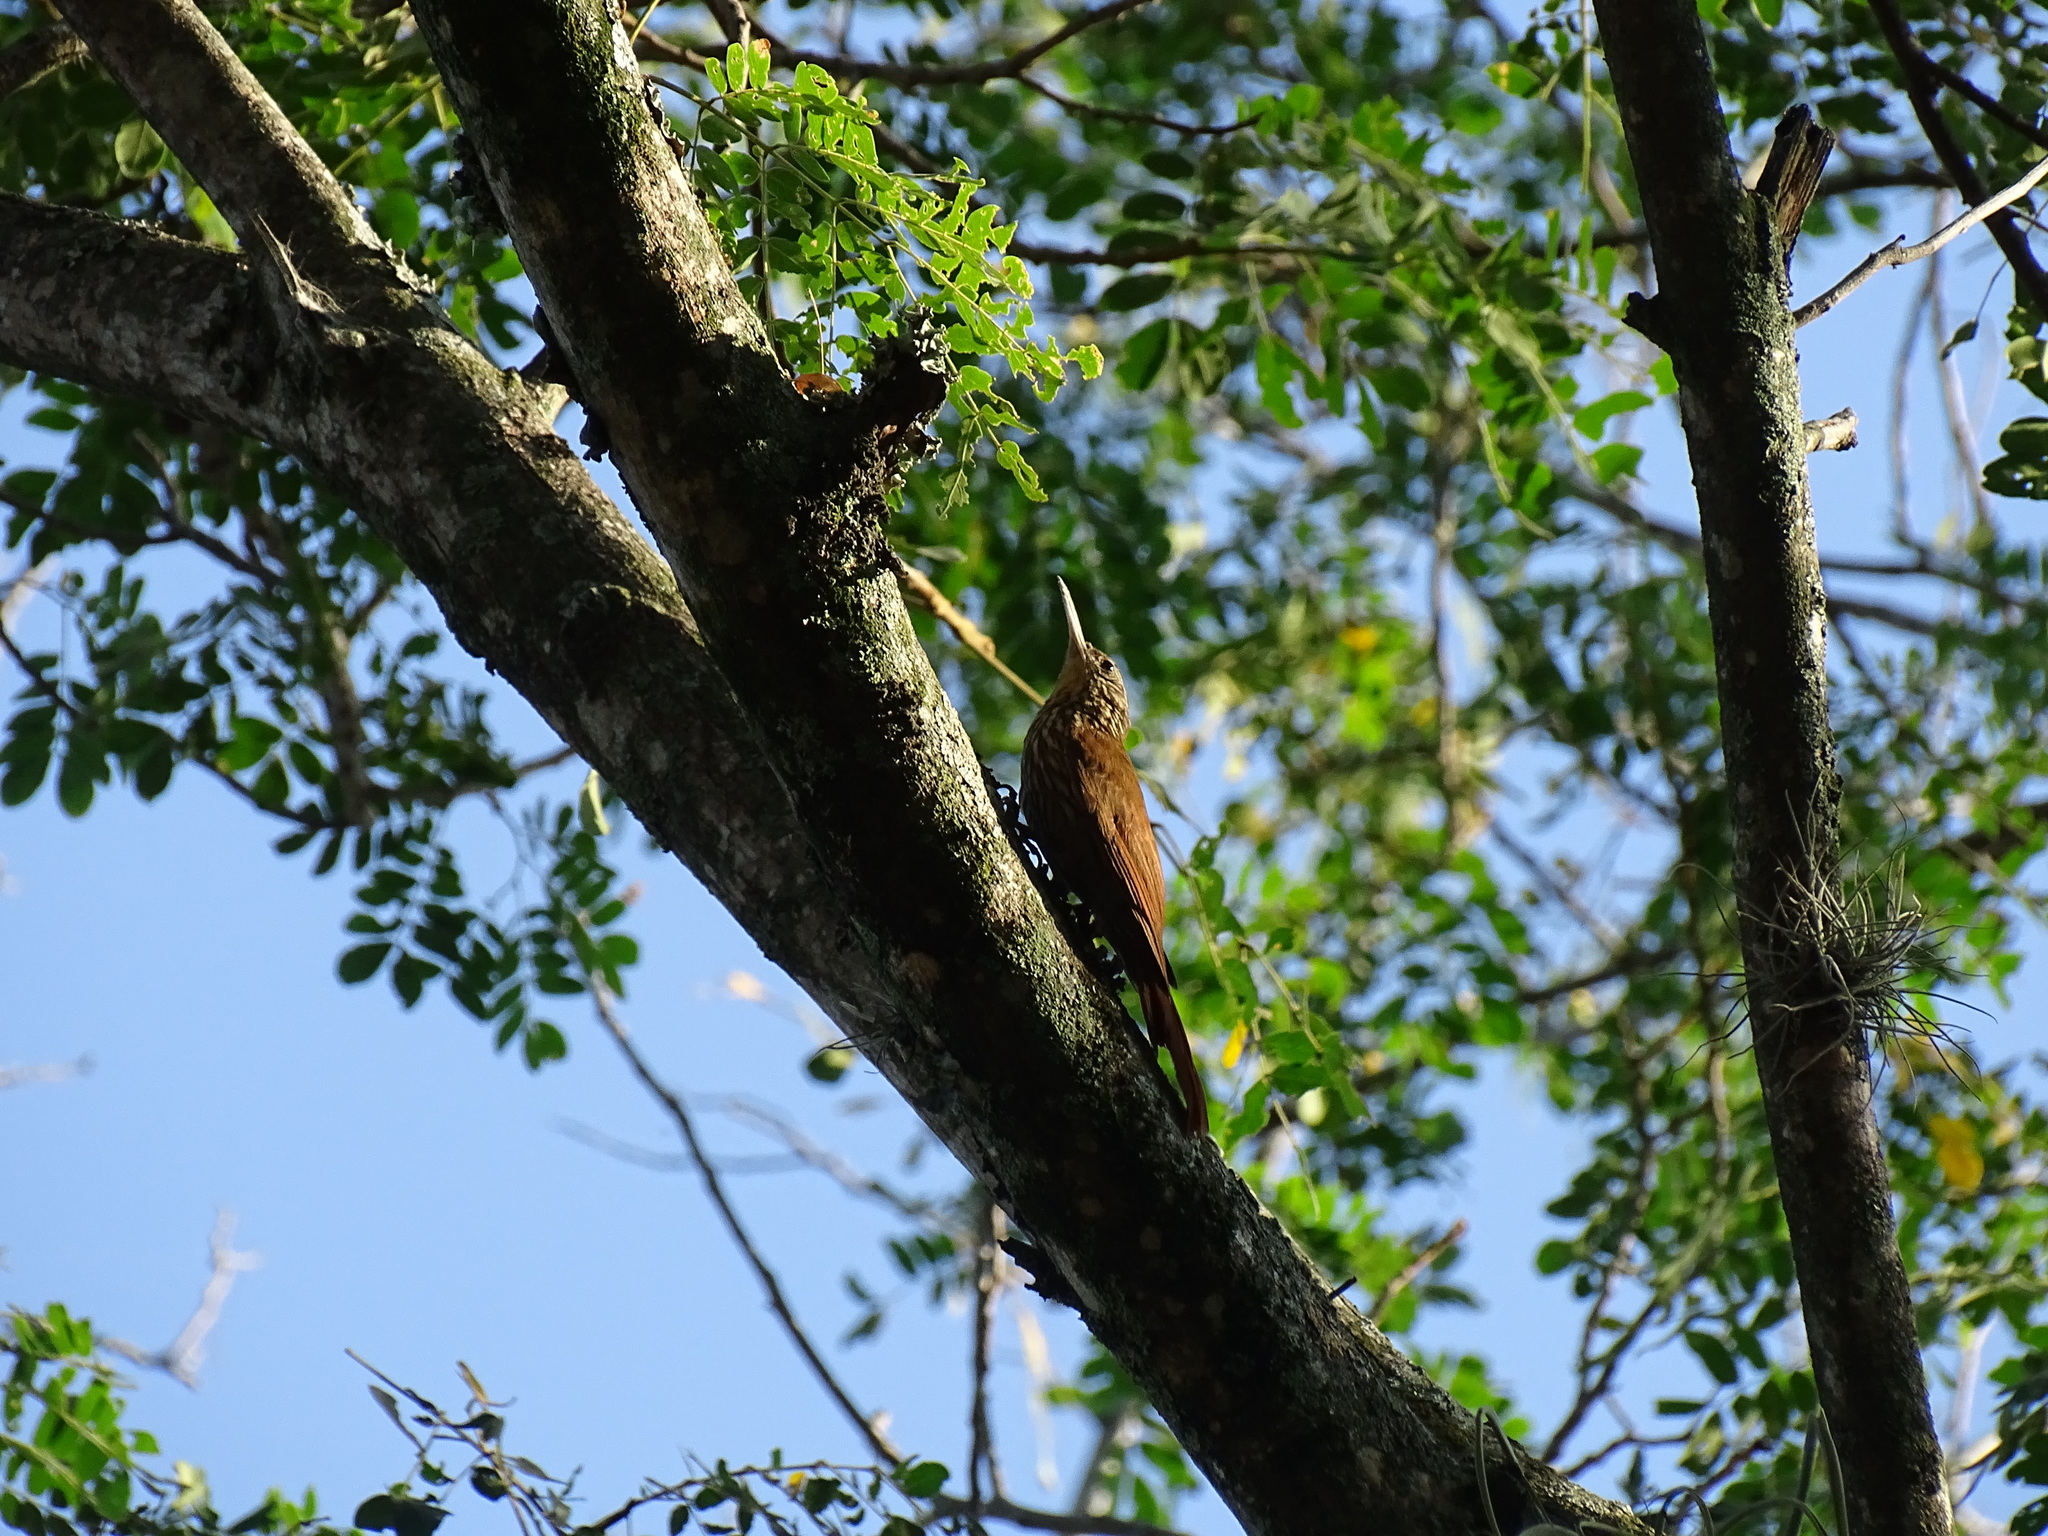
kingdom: Animalia
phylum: Chordata
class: Aves
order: Passeriformes
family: Furnariidae
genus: Lepidocolaptes
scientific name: Lepidocolaptes souleyetii
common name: Streak-headed woodcreeper
